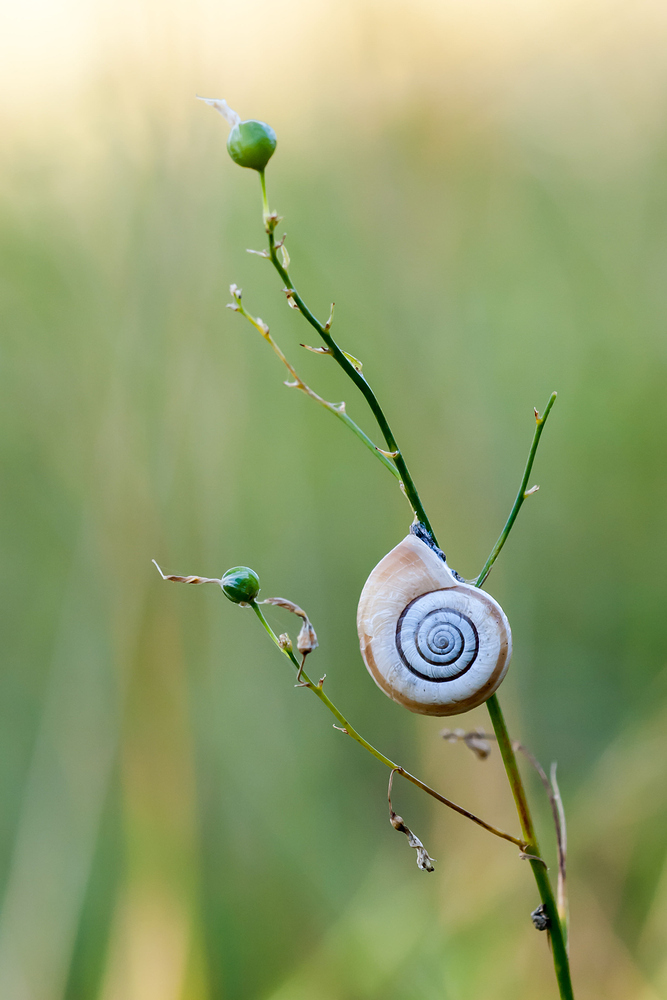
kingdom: Animalia
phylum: Mollusca
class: Gastropoda
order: Stylommatophora
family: Geomitridae
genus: Helicella
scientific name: Helicella itala
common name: Heath snail
